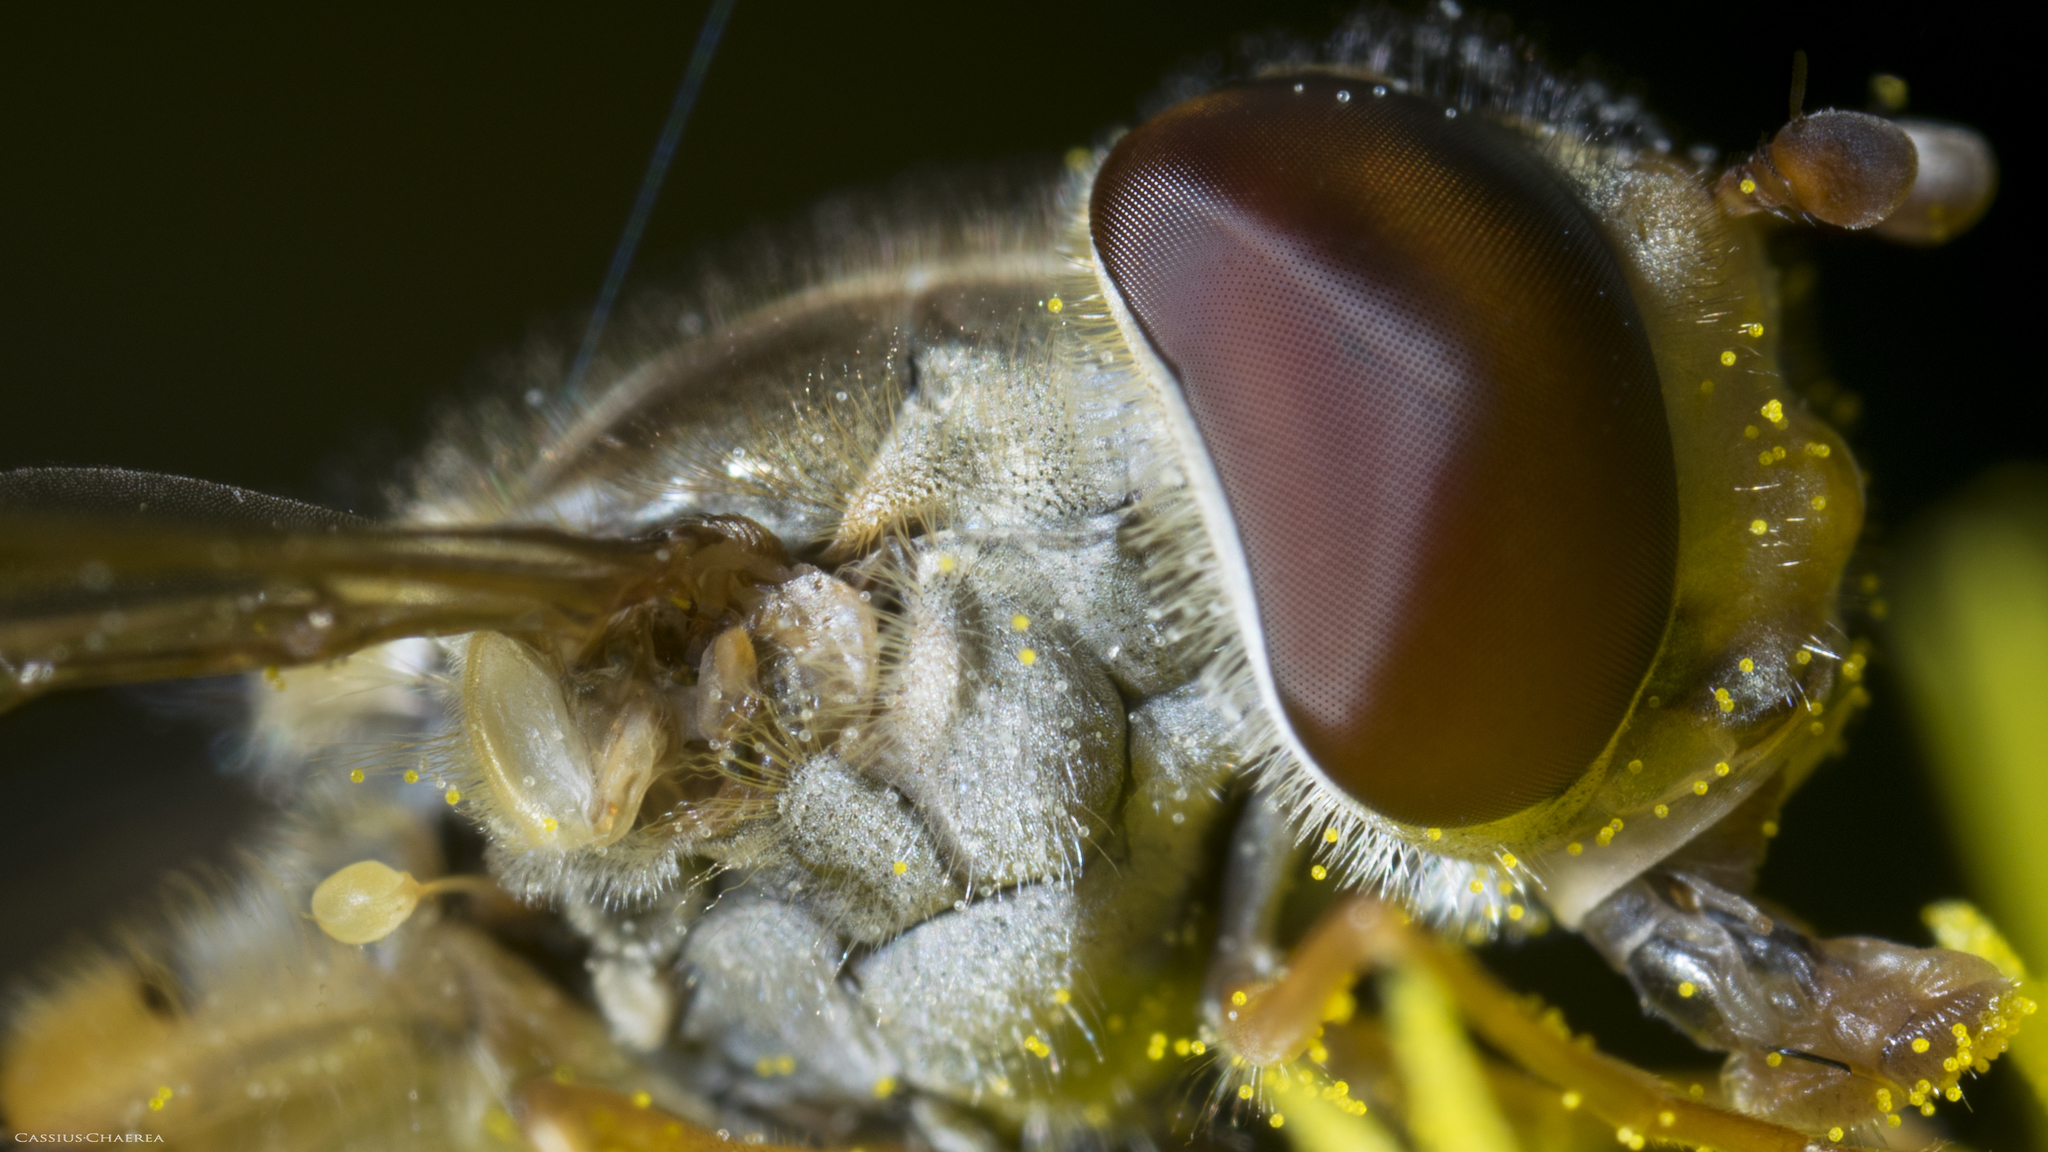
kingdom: Animalia
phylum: Arthropoda
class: Insecta
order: Diptera
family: Syrphidae
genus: Episyrphus
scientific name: Episyrphus balteatus
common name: Marmalade hoverfly
